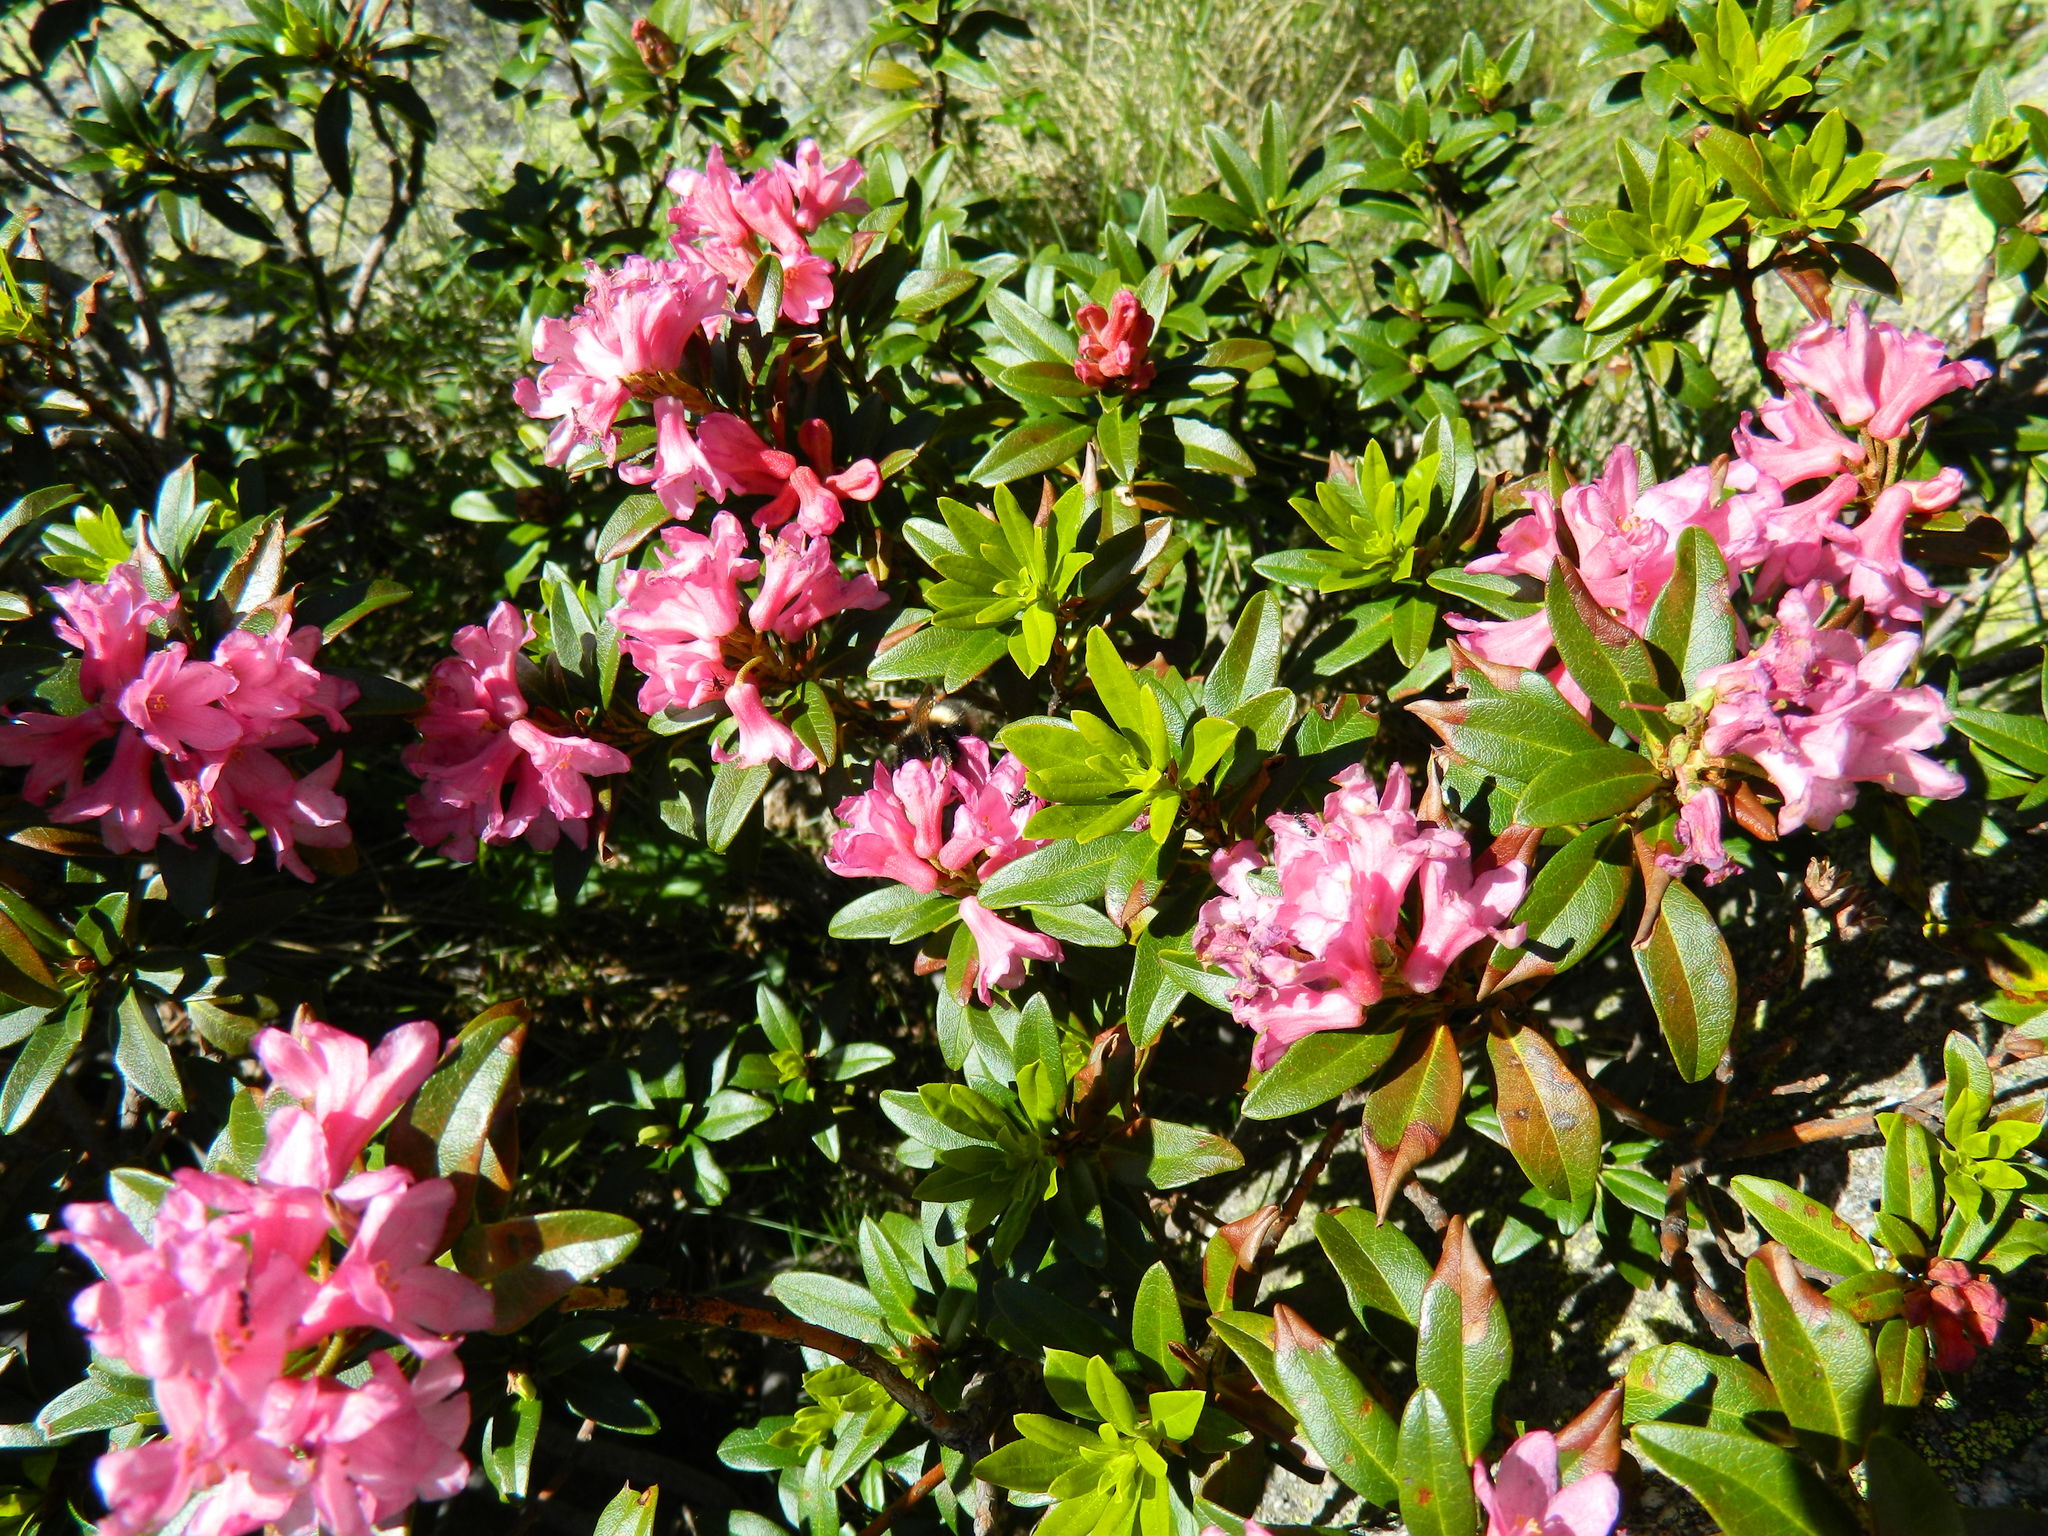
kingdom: Plantae
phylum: Tracheophyta
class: Magnoliopsida
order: Ericales
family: Ericaceae
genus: Rhododendron
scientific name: Rhododendron ferrugineum
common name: Alpenrose
